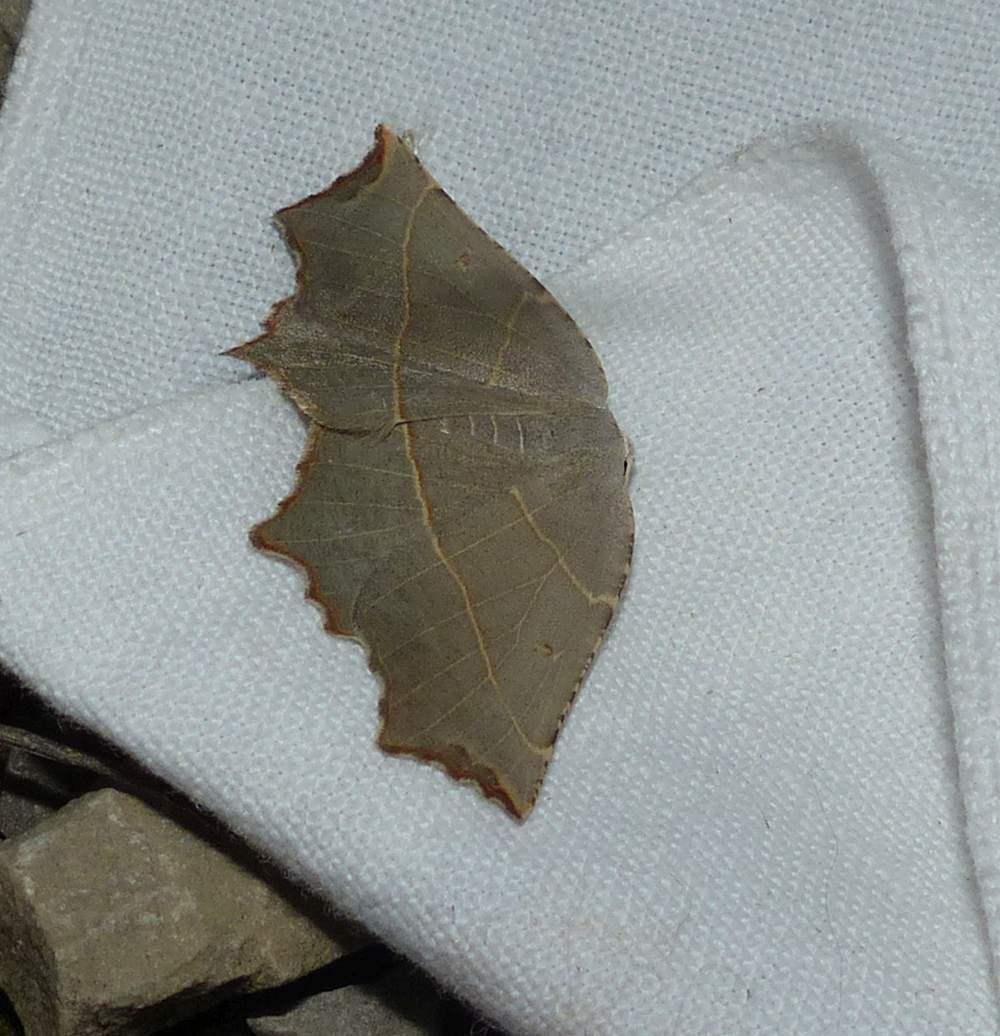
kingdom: Animalia
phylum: Arthropoda
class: Insecta
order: Lepidoptera
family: Geometridae
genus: Metanema
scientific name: Metanema inatomaria
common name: Pale metanema
